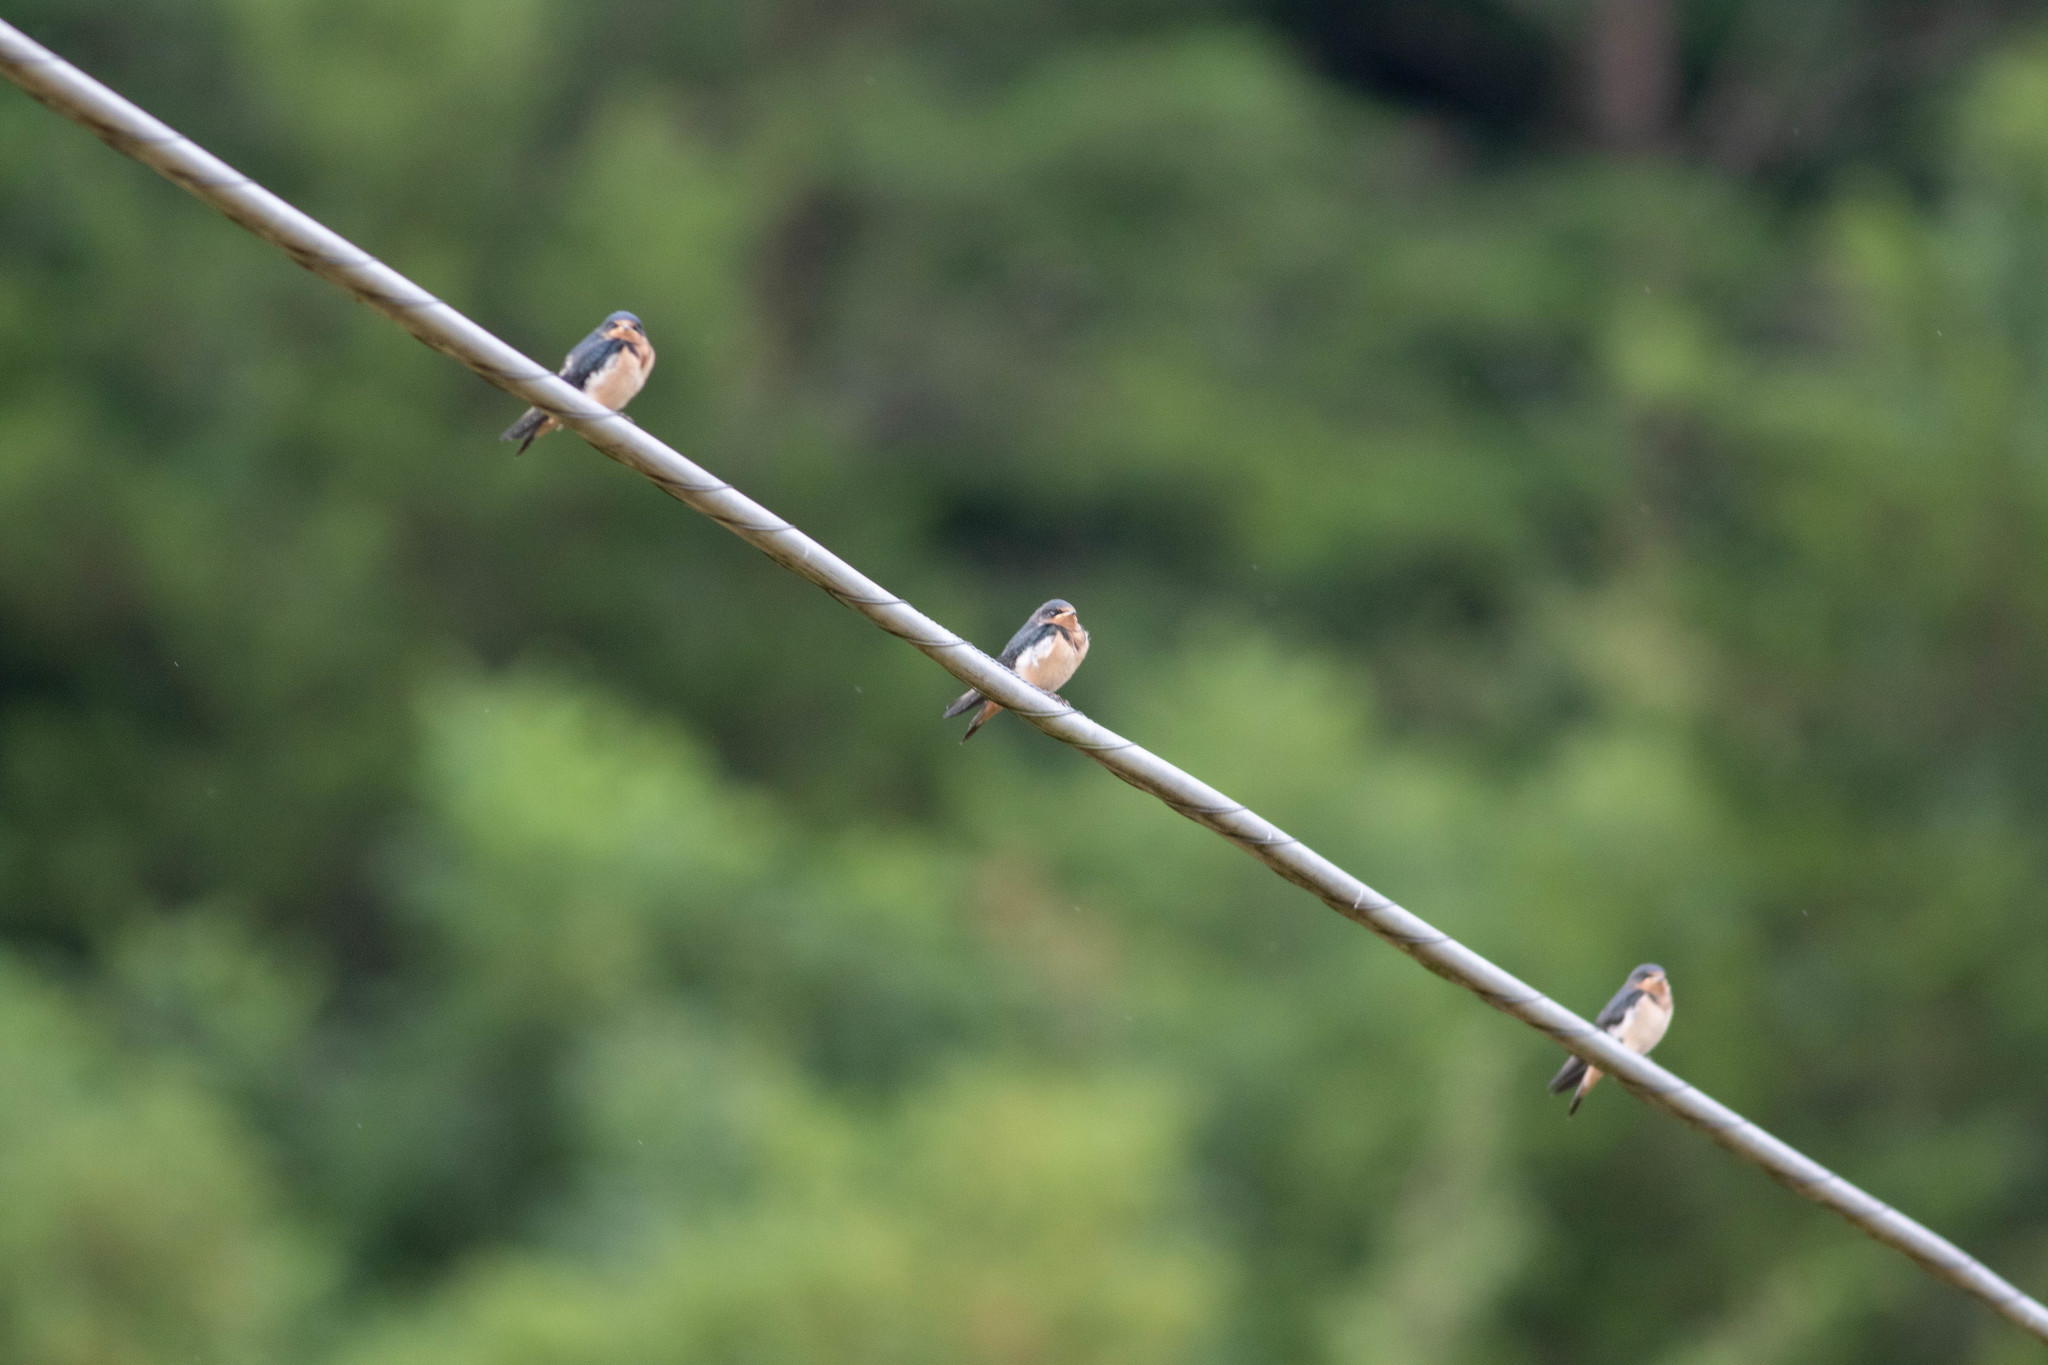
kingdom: Animalia
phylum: Chordata
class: Aves
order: Passeriformes
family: Hirundinidae
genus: Hirundo
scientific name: Hirundo rustica
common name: Barn swallow
